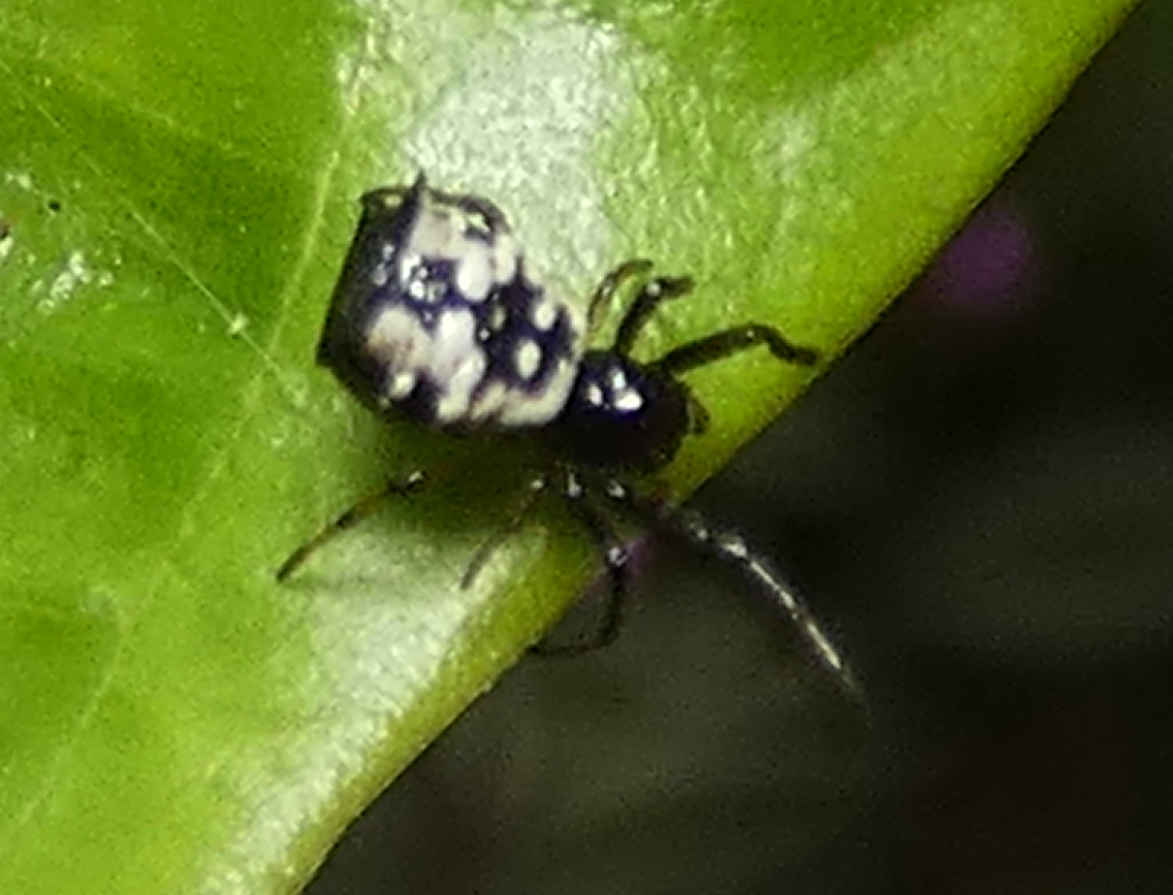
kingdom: Animalia
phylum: Arthropoda
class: Arachnida
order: Araneae
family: Araneidae
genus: Micrathena
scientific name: Micrathena patruelis
